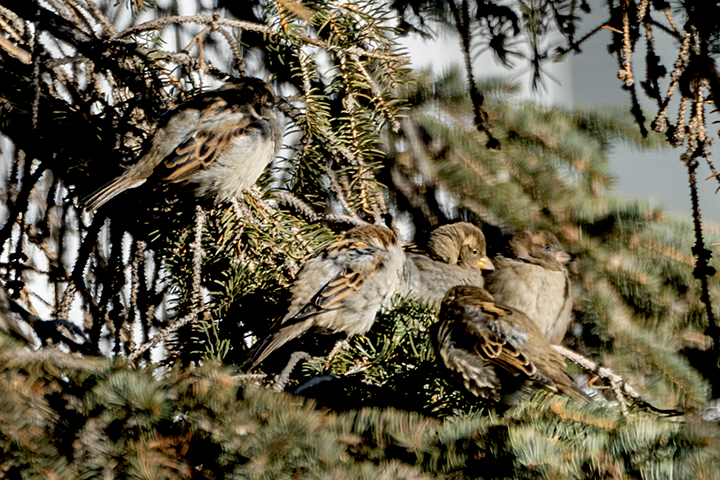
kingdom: Animalia
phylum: Chordata
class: Aves
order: Passeriformes
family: Passeridae
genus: Passer
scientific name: Passer domesticus
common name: House sparrow
